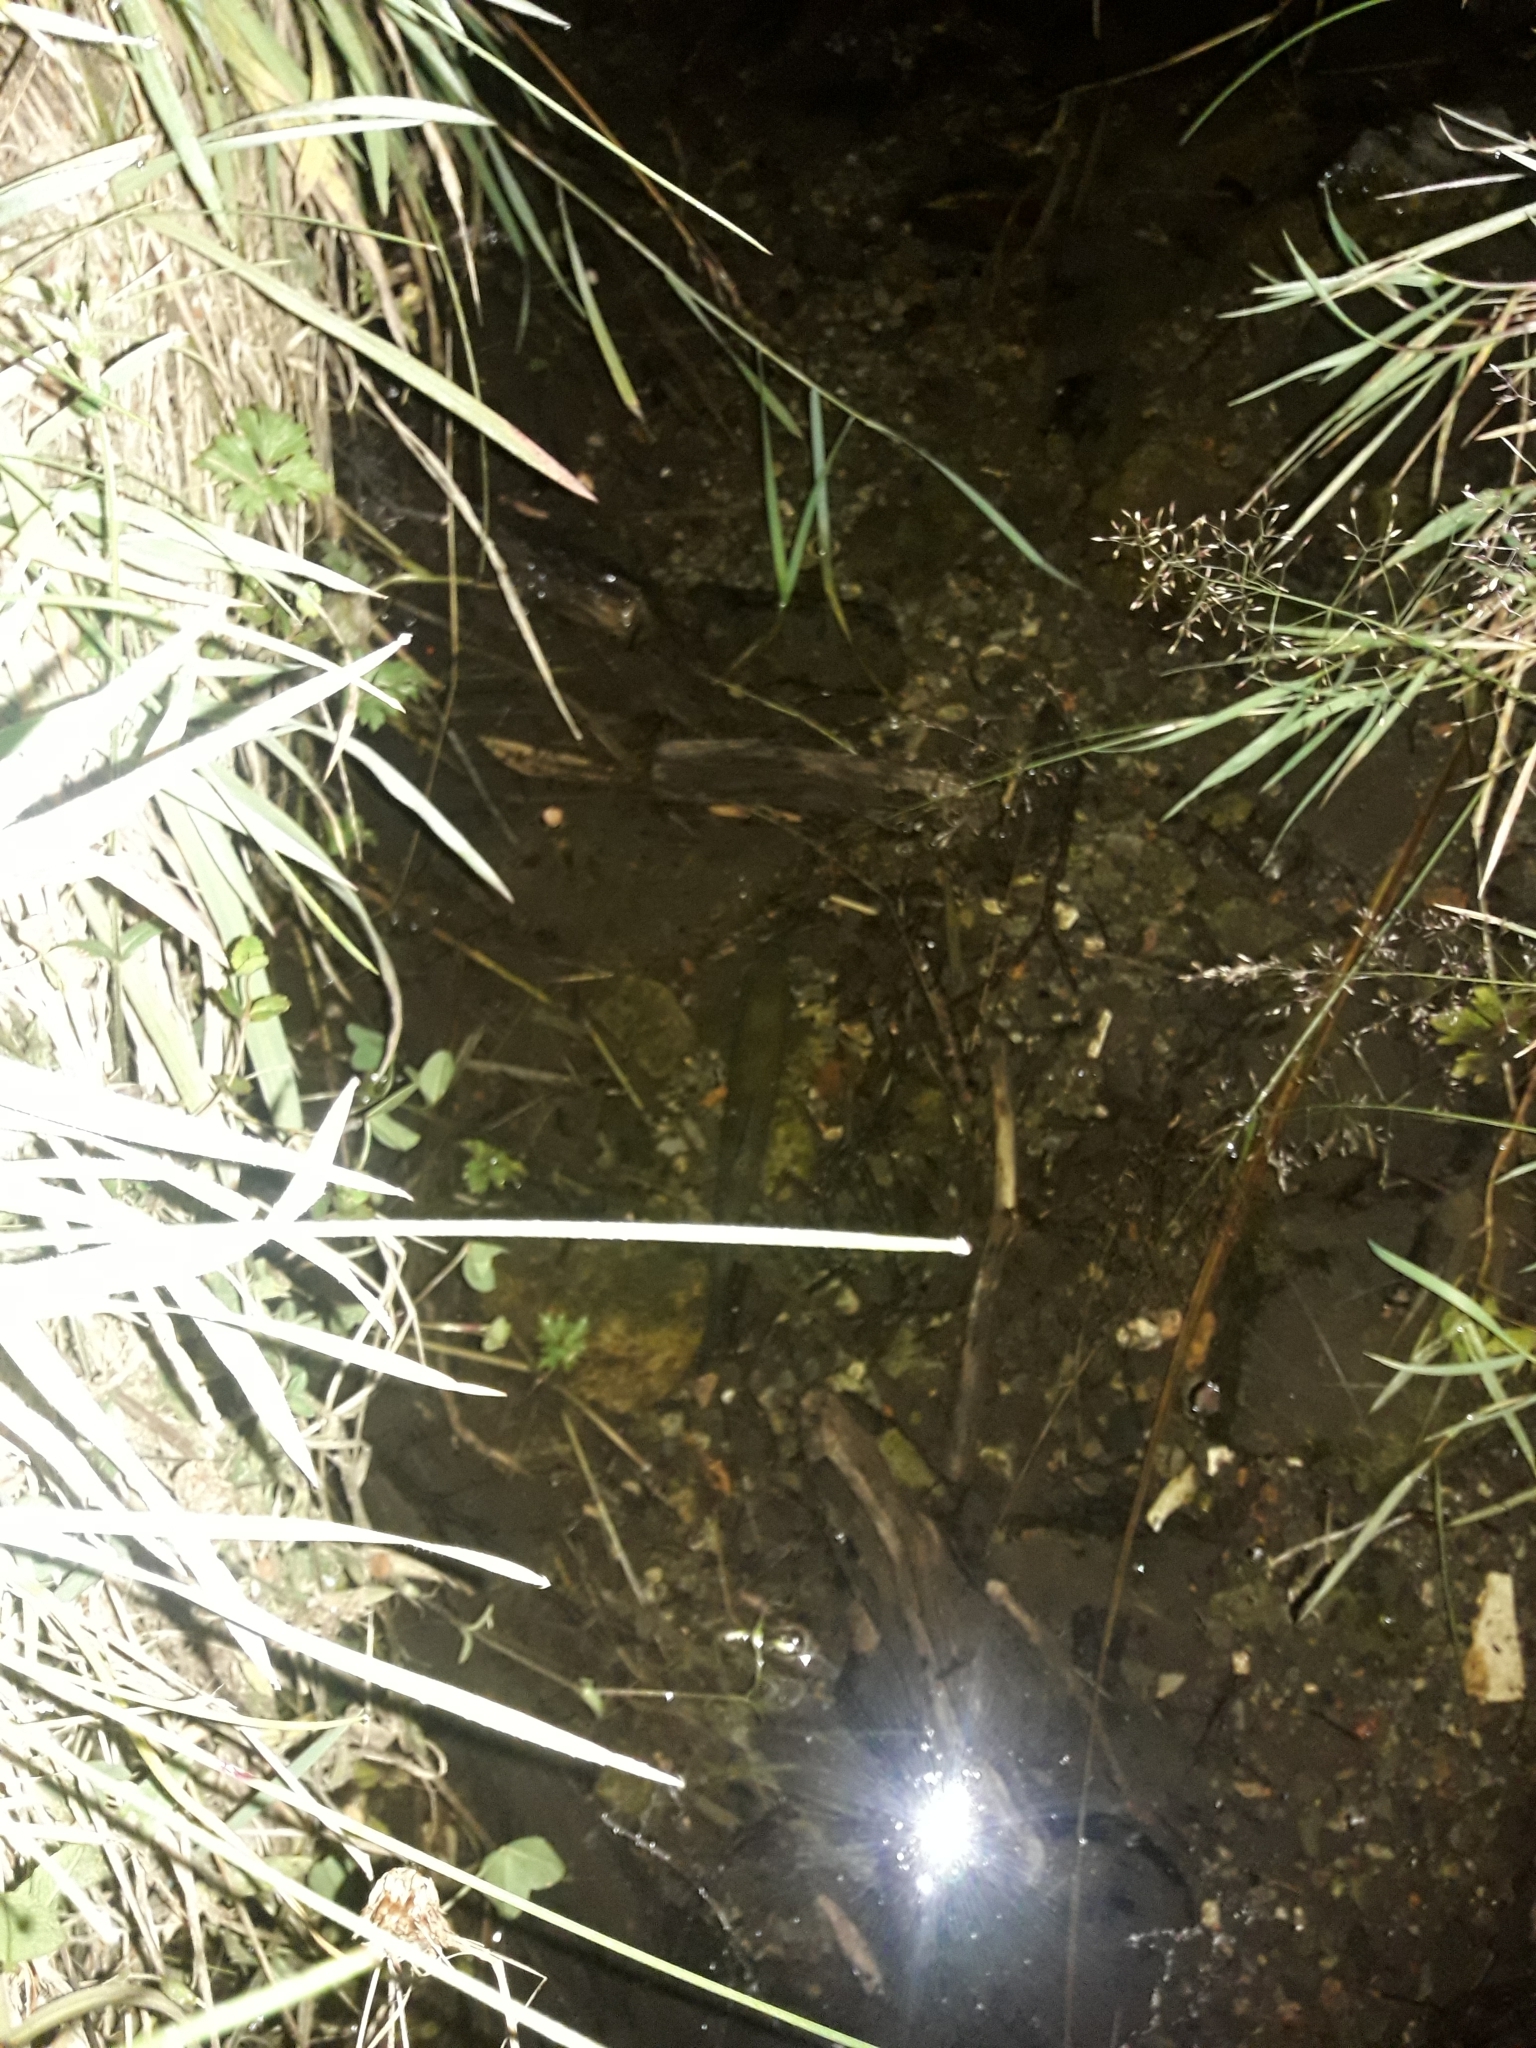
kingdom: Animalia
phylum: Chordata
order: Salmoniformes
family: Salmonidae
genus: Salmo
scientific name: Salmo trutta
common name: Brown trout
